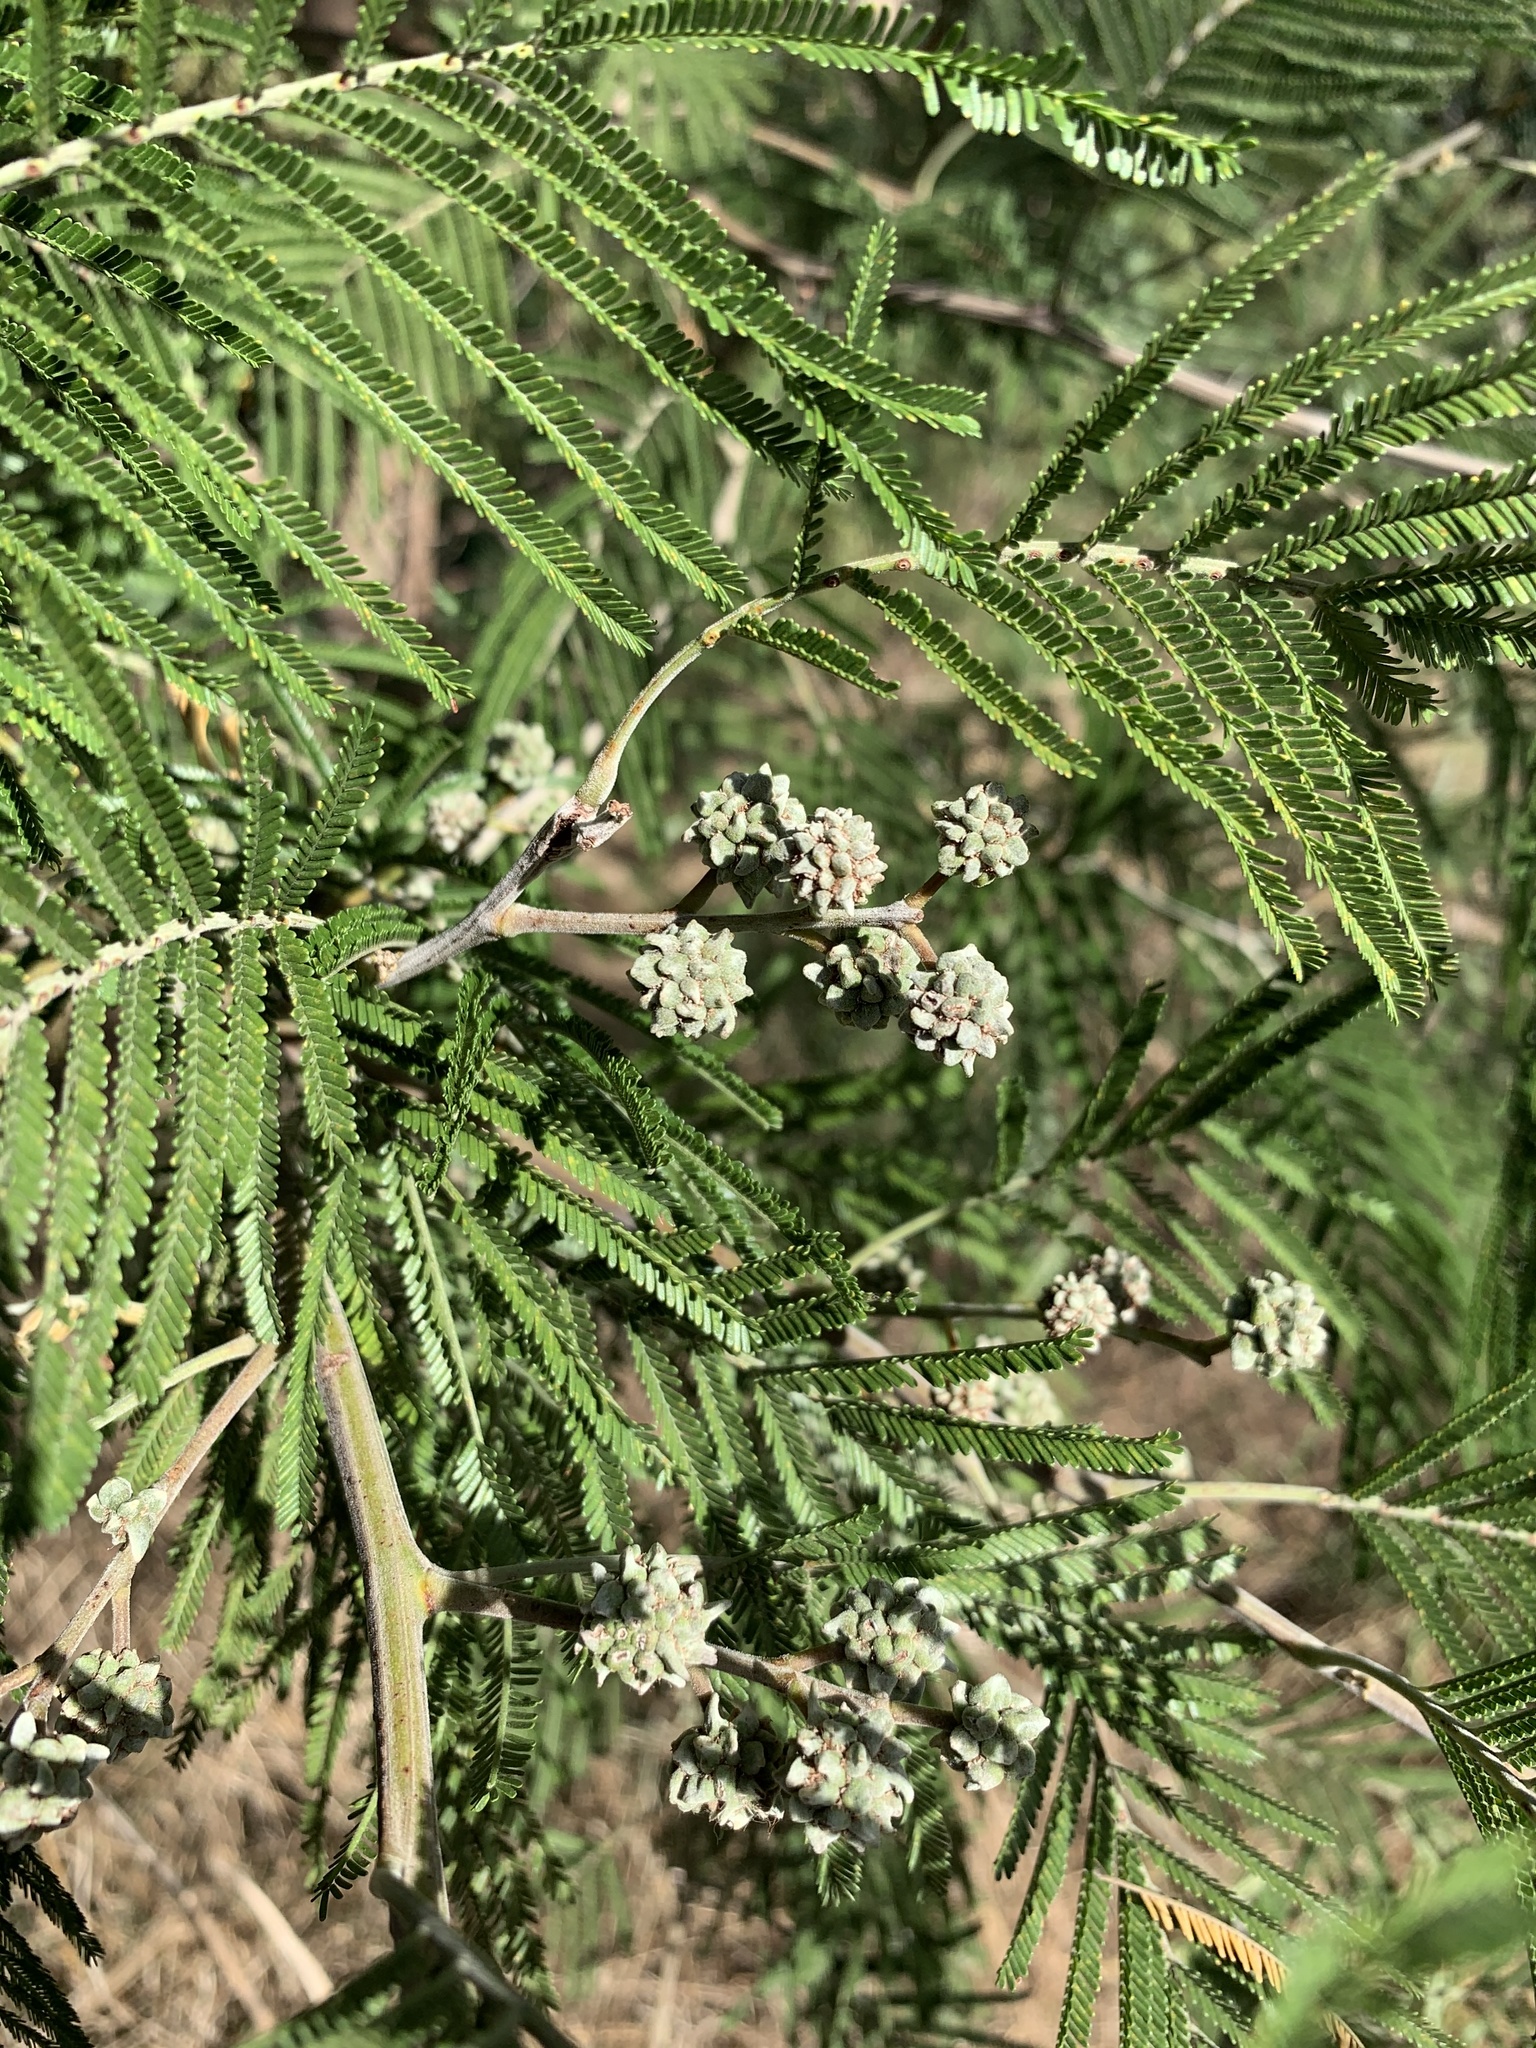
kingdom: Animalia
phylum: Arthropoda
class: Insecta
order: Diptera
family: Cecidomyiidae
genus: Dasineura
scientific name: Dasineura rubiformis
